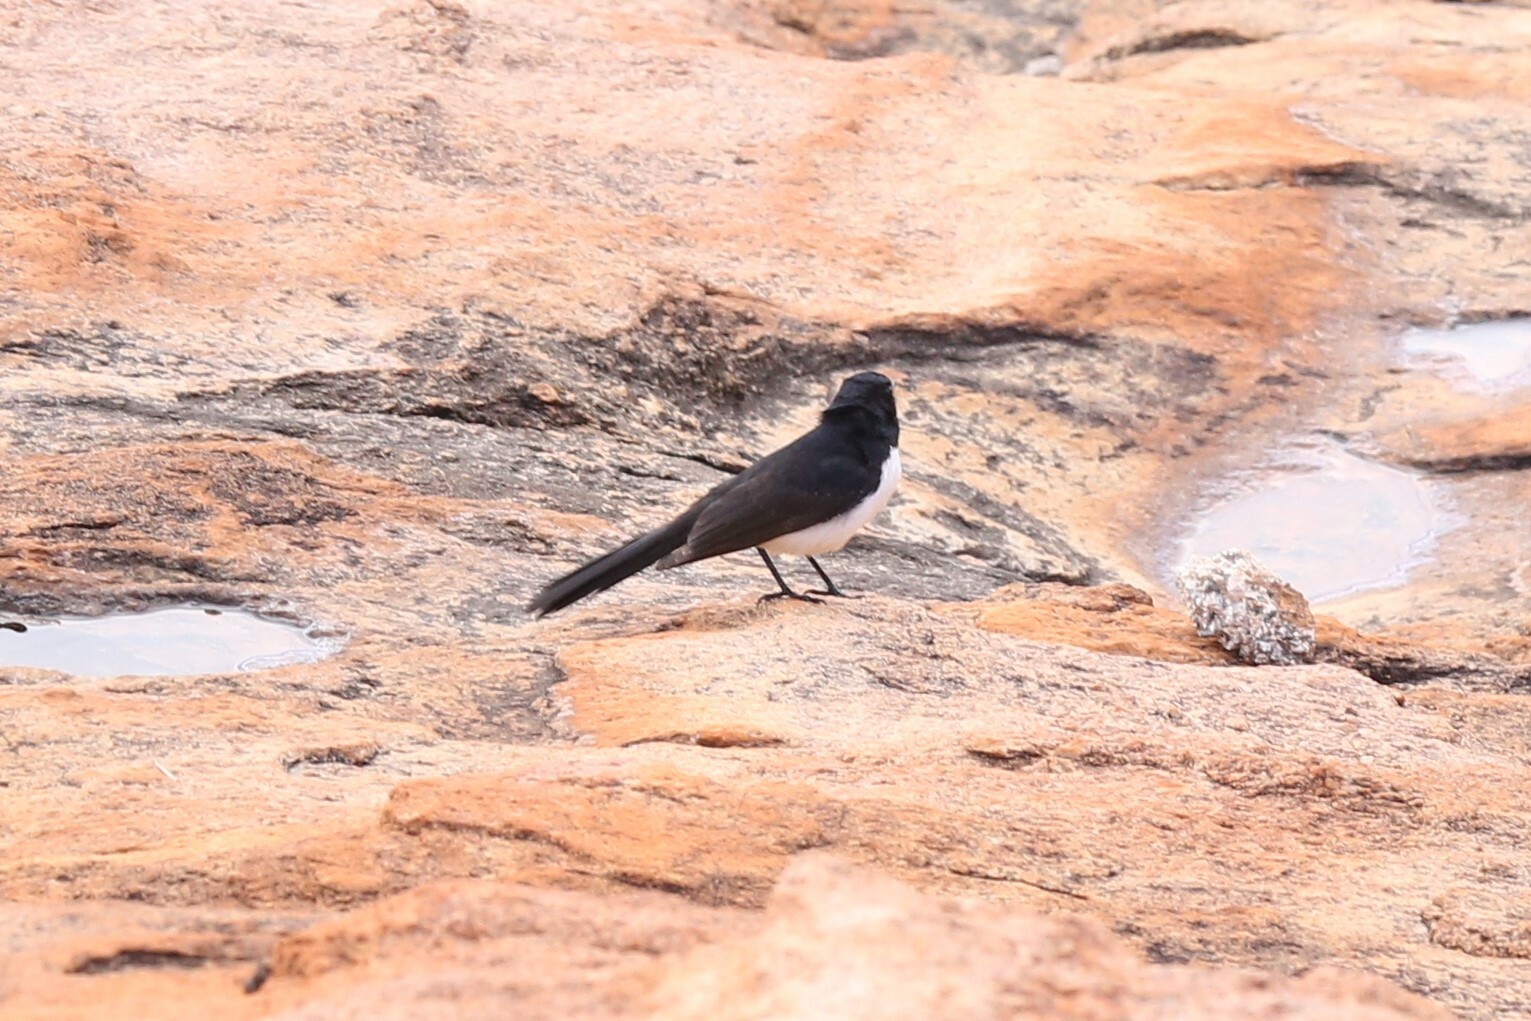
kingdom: Animalia
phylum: Chordata
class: Aves
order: Passeriformes
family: Rhipiduridae
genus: Rhipidura
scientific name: Rhipidura leucophrys
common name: Willie wagtail
